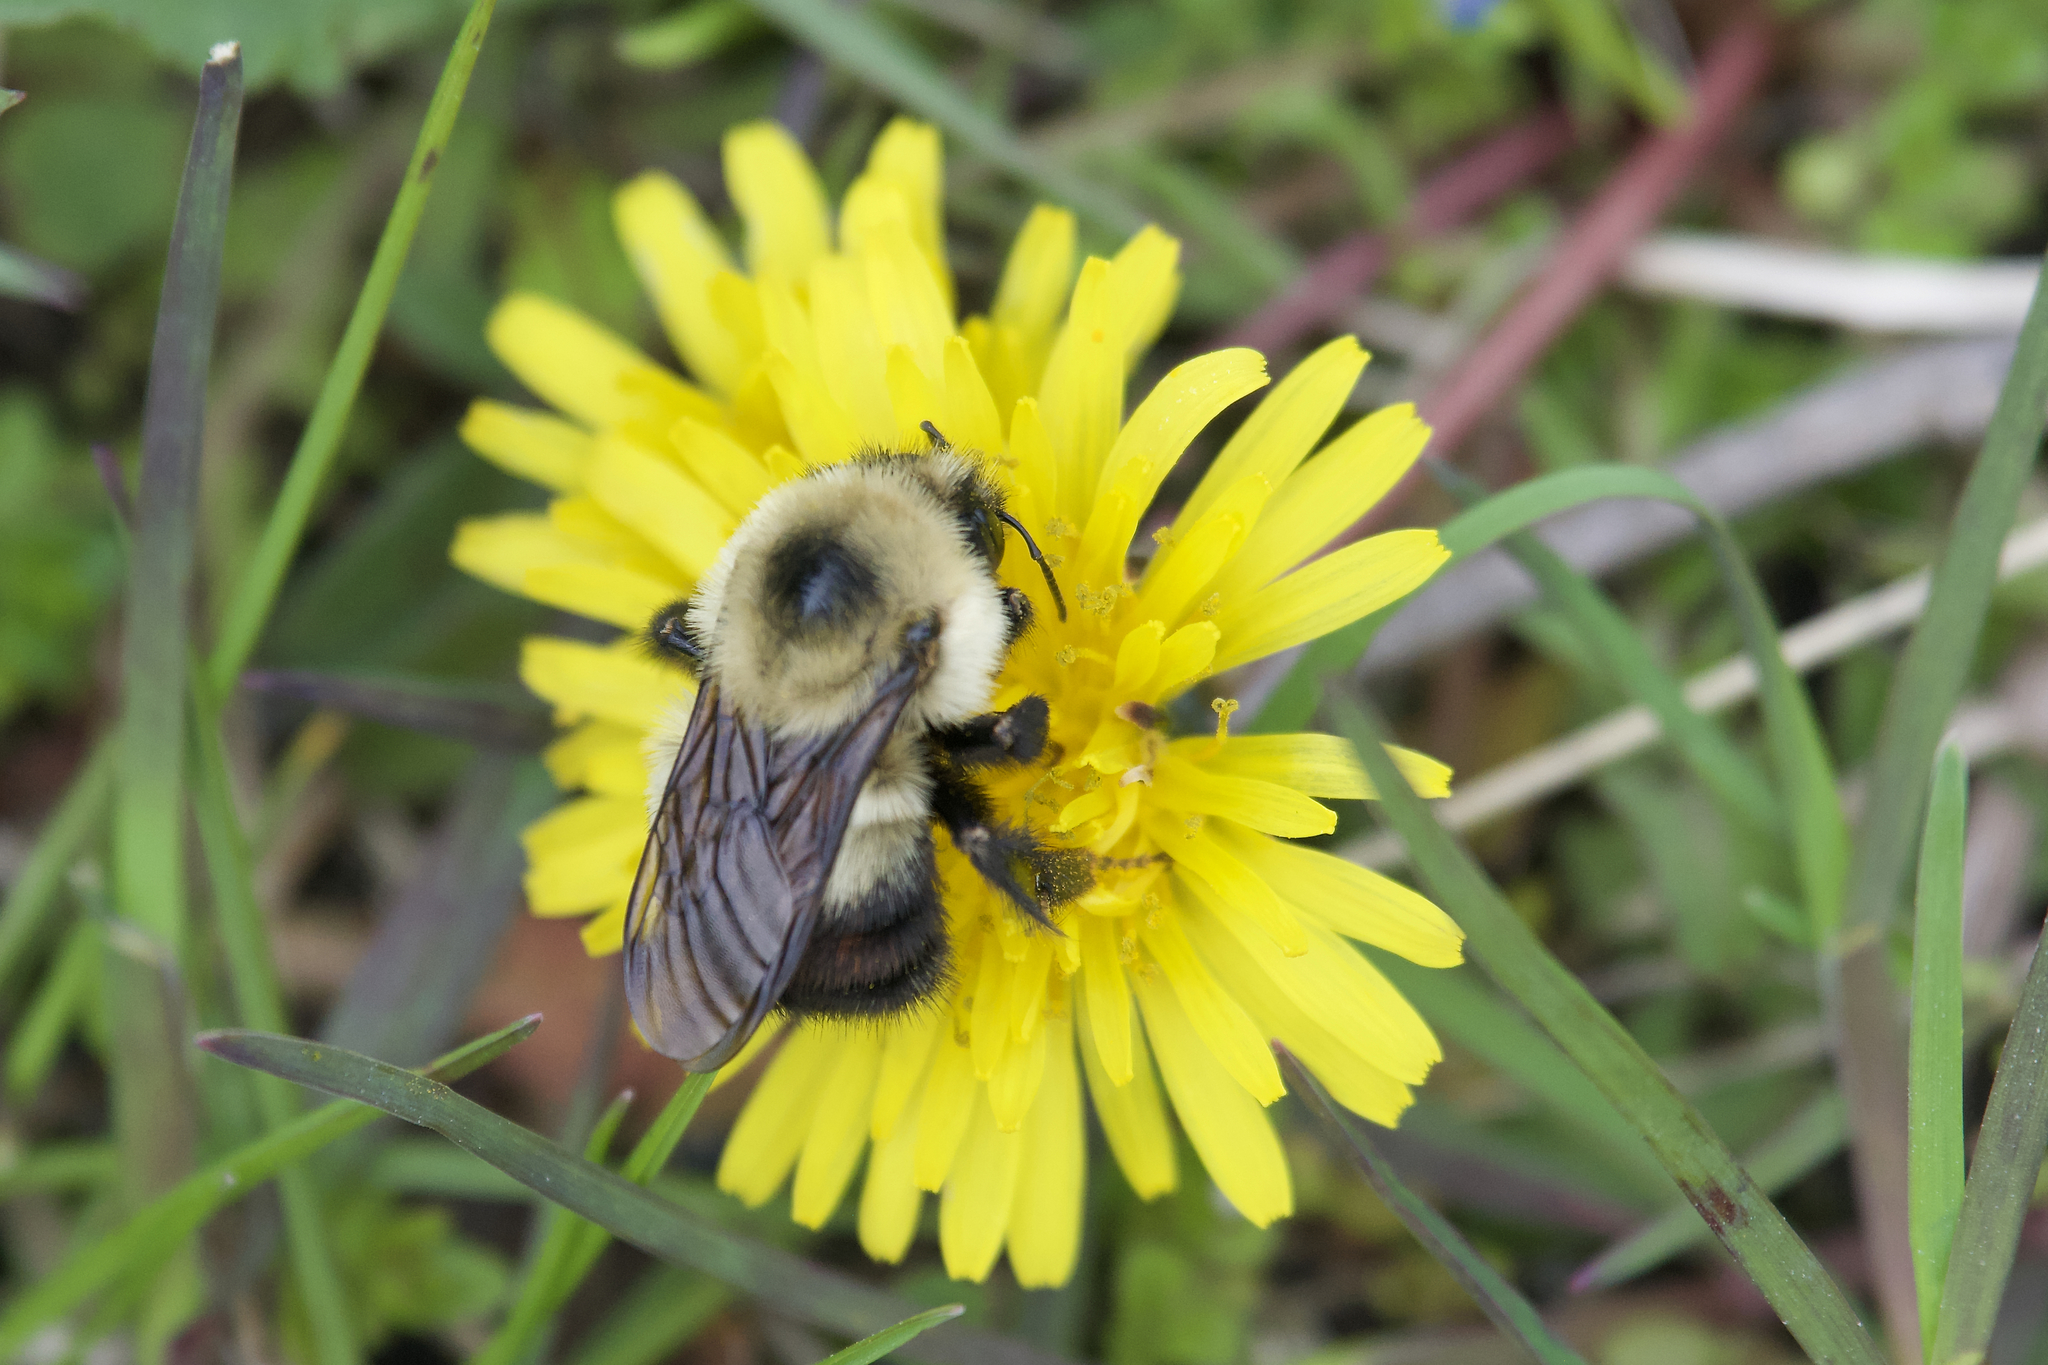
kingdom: Animalia
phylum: Arthropoda
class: Insecta
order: Hymenoptera
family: Apidae
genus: Bombus
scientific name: Bombus rufocinctus
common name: Red-belted bumble bee
